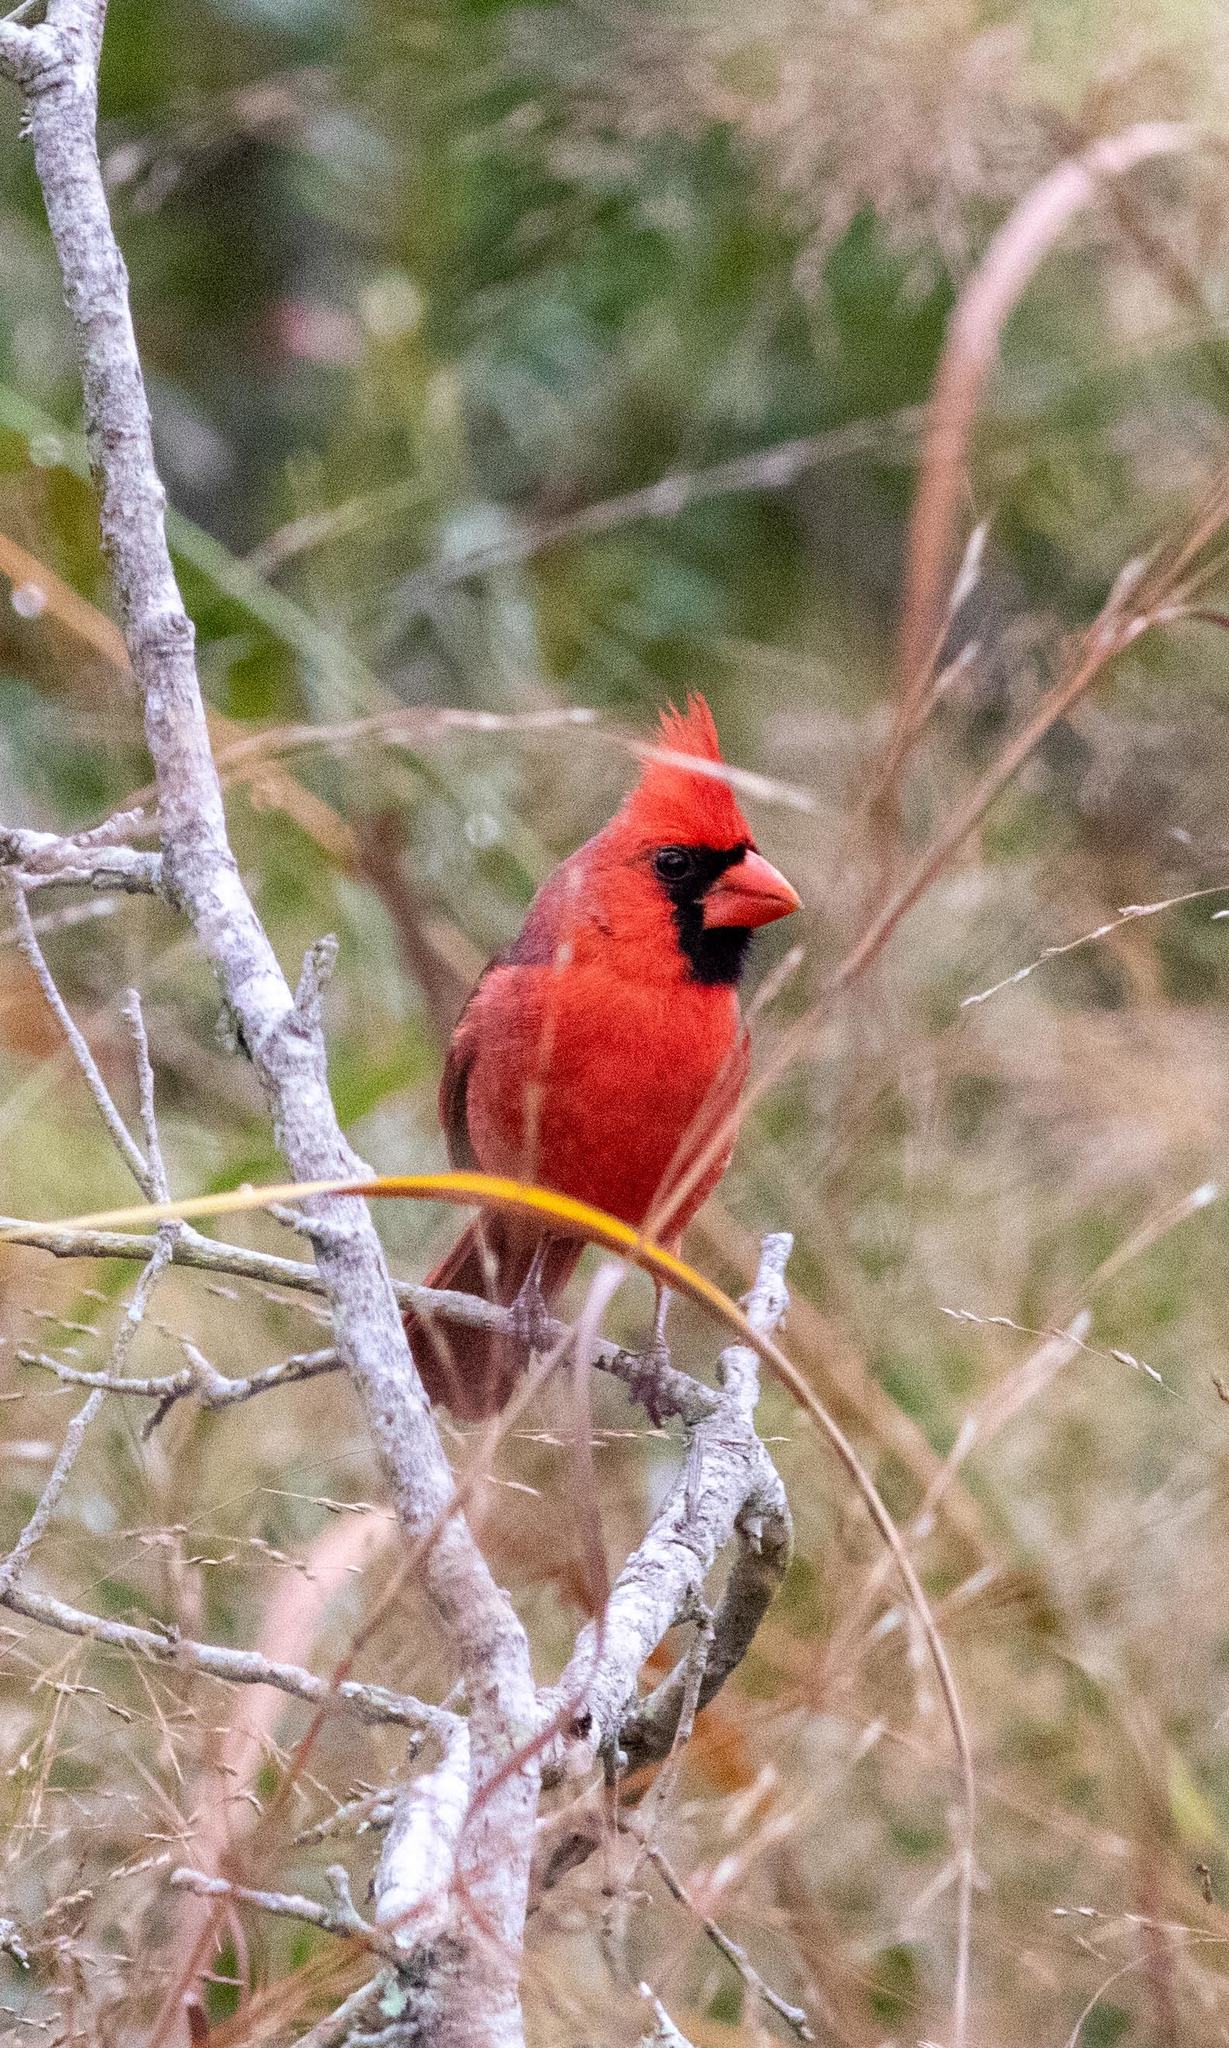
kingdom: Animalia
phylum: Chordata
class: Aves
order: Passeriformes
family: Cardinalidae
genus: Cardinalis
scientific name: Cardinalis cardinalis
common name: Northern cardinal
